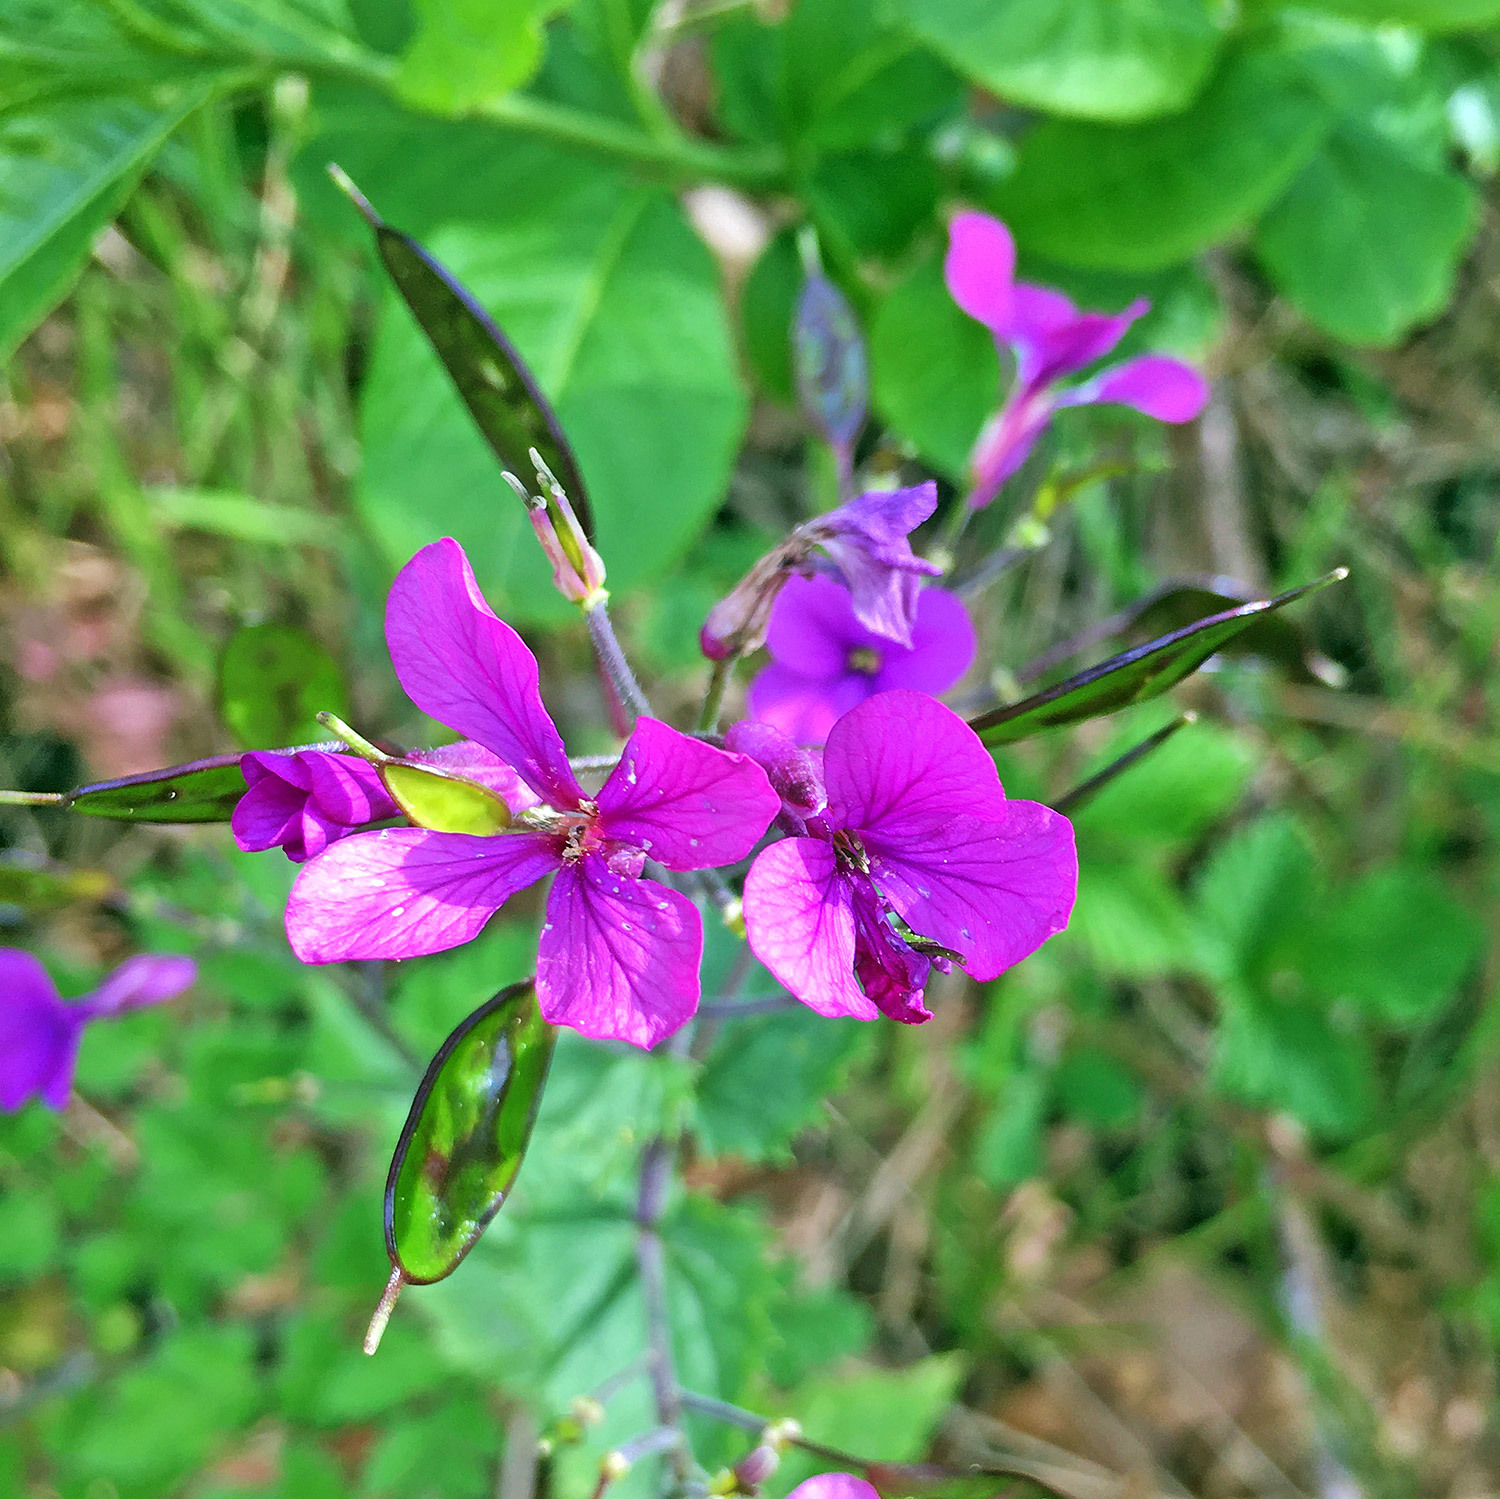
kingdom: Plantae
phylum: Tracheophyta
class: Magnoliopsida
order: Brassicales
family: Brassicaceae
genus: Lunaria
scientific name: Lunaria annua
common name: Honesty
